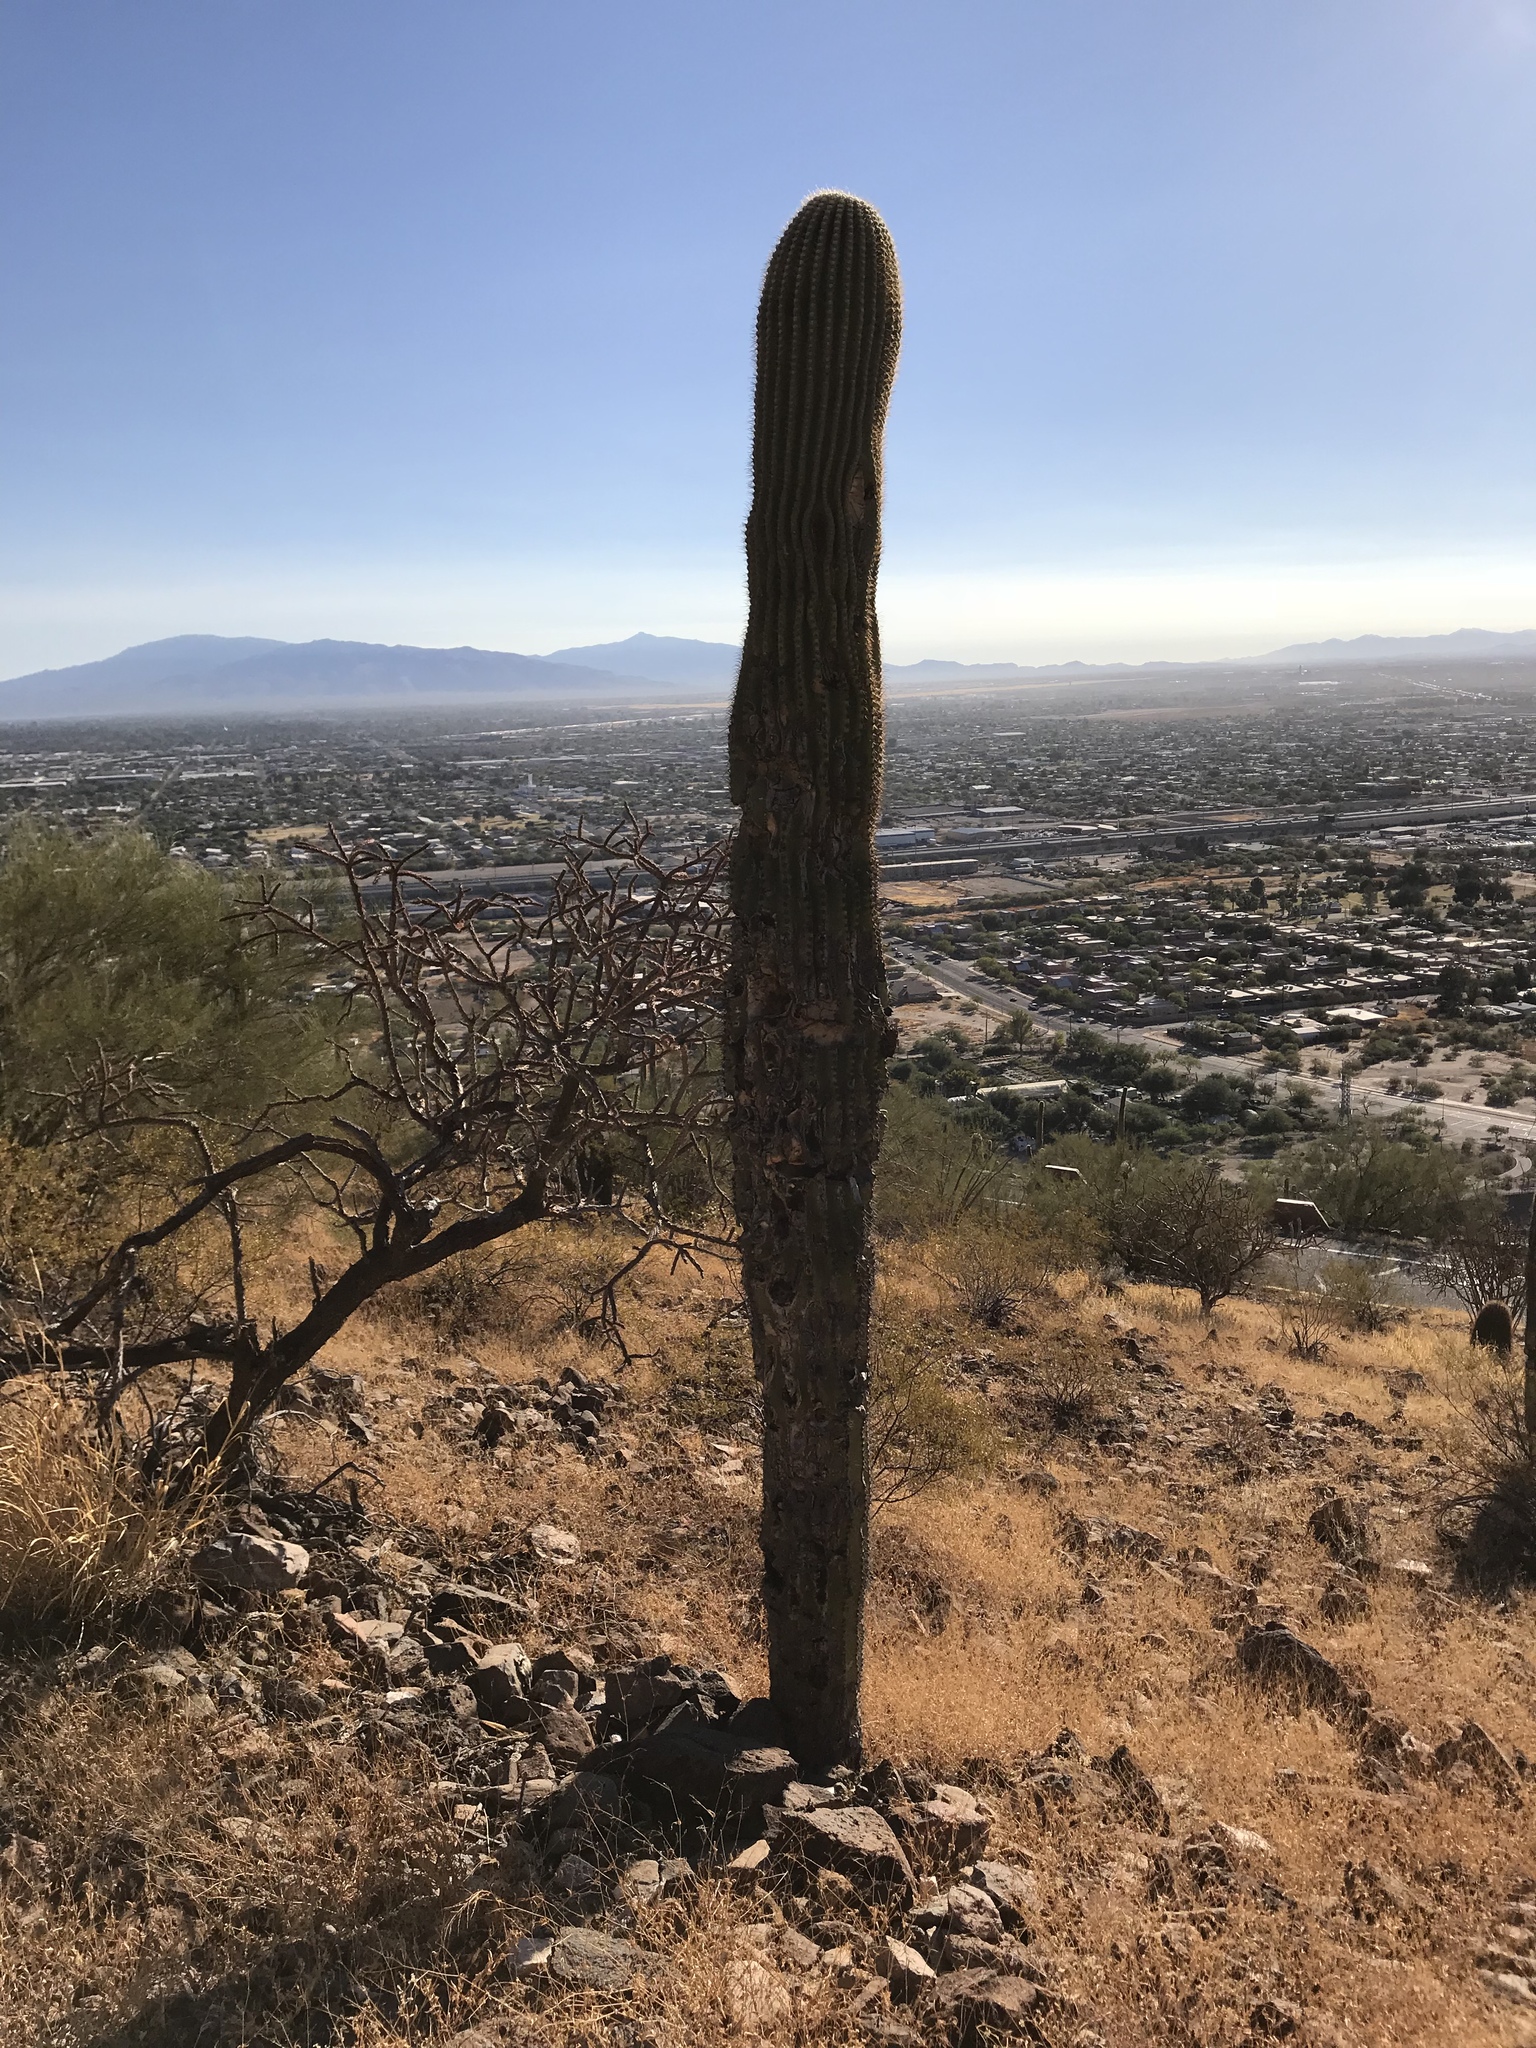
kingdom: Plantae
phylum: Tracheophyta
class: Magnoliopsida
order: Caryophyllales
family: Cactaceae
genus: Carnegiea
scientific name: Carnegiea gigantea
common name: Saguaro
